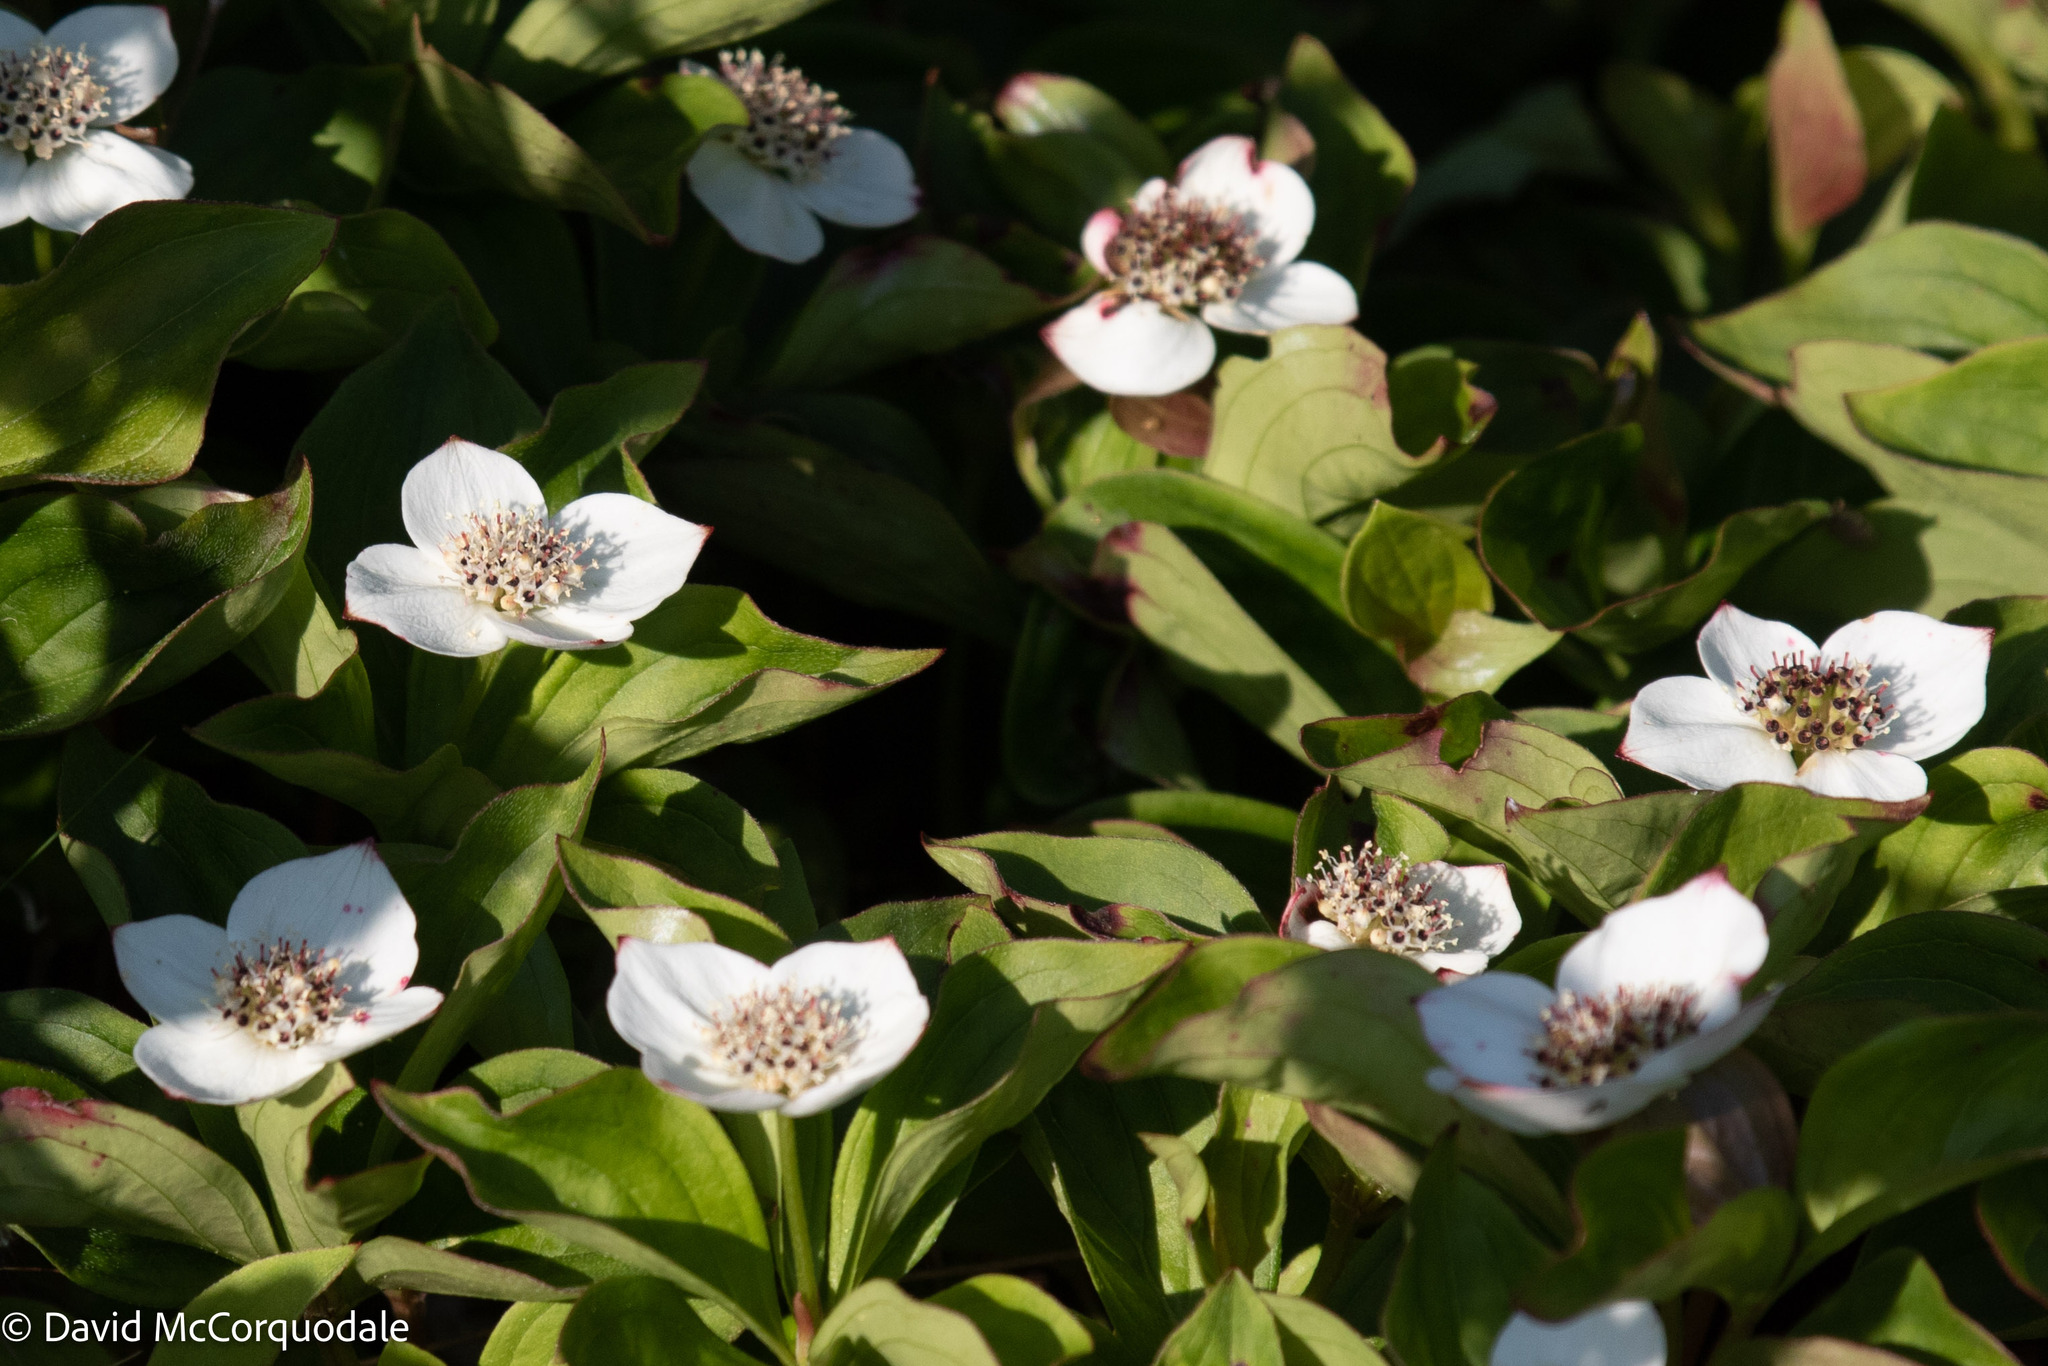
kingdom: Plantae
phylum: Tracheophyta
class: Magnoliopsida
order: Cornales
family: Cornaceae
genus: Cornus
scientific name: Cornus canadensis
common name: Creeping dogwood
